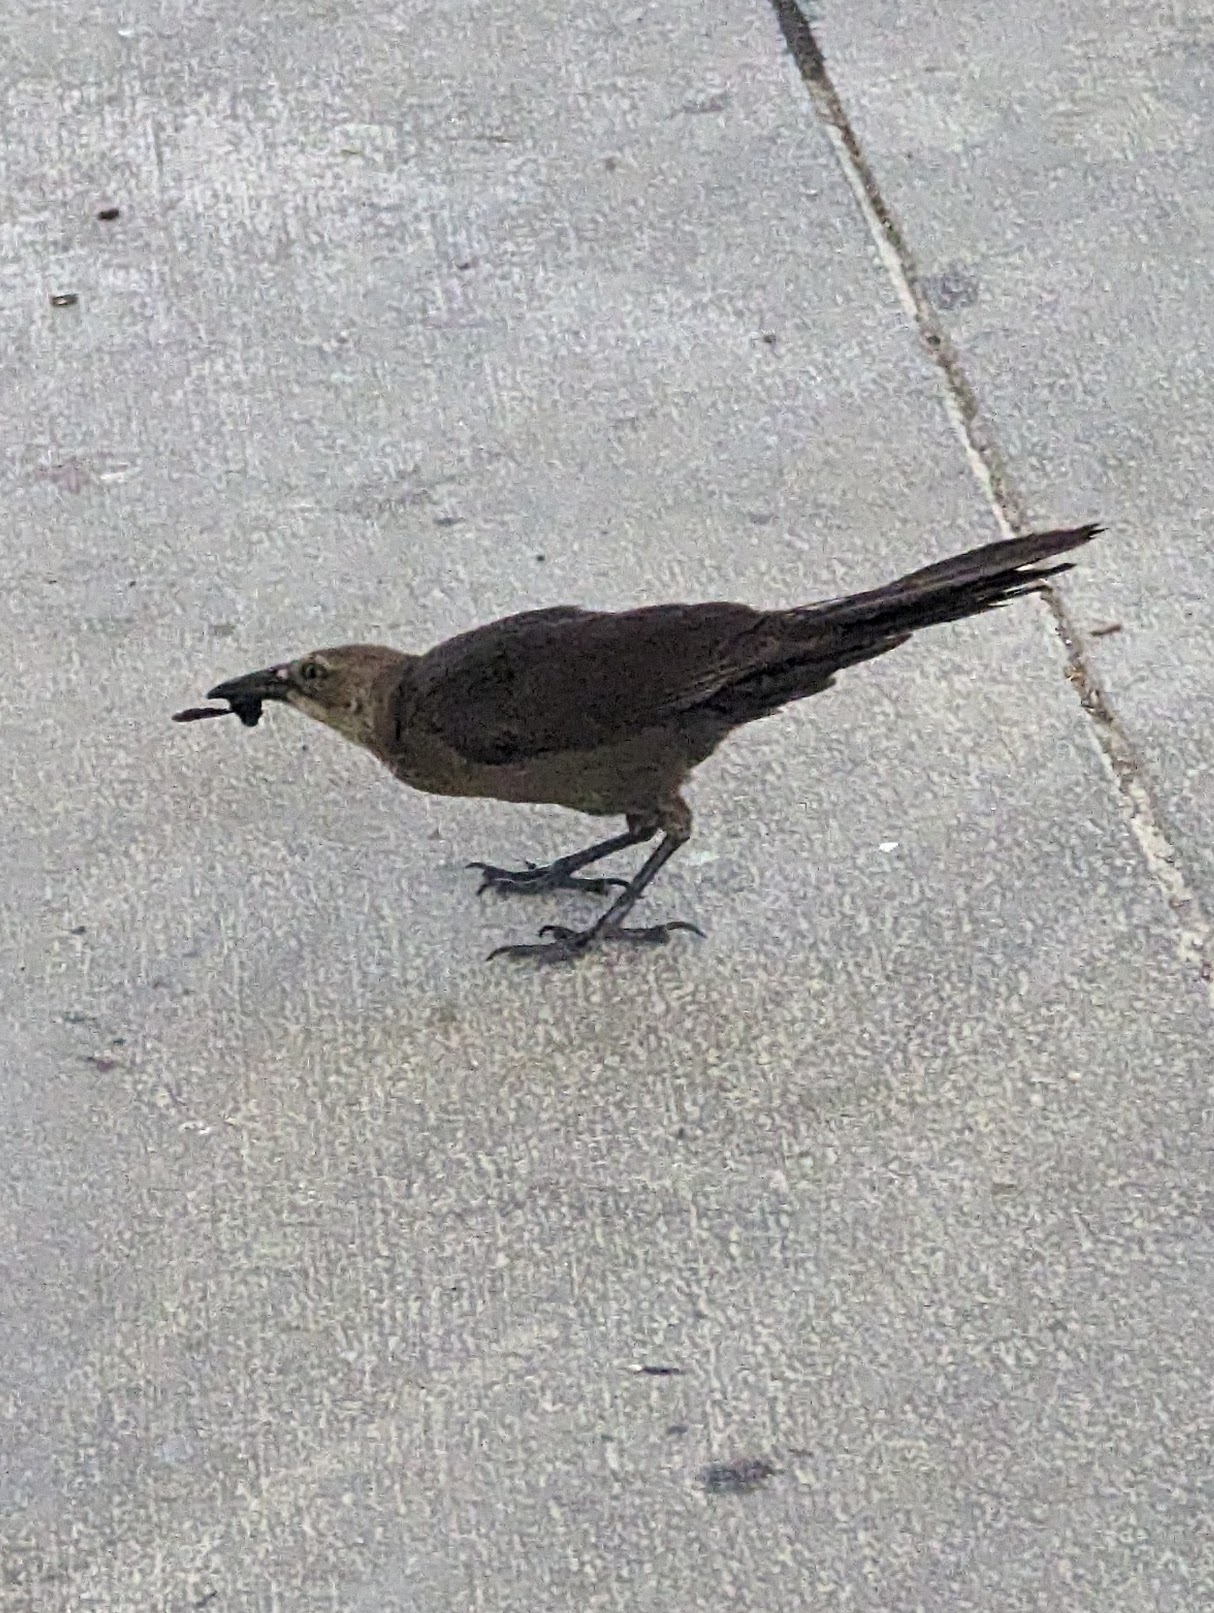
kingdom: Animalia
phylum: Chordata
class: Aves
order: Passeriformes
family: Icteridae
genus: Quiscalus
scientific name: Quiscalus mexicanus
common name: Great-tailed grackle
